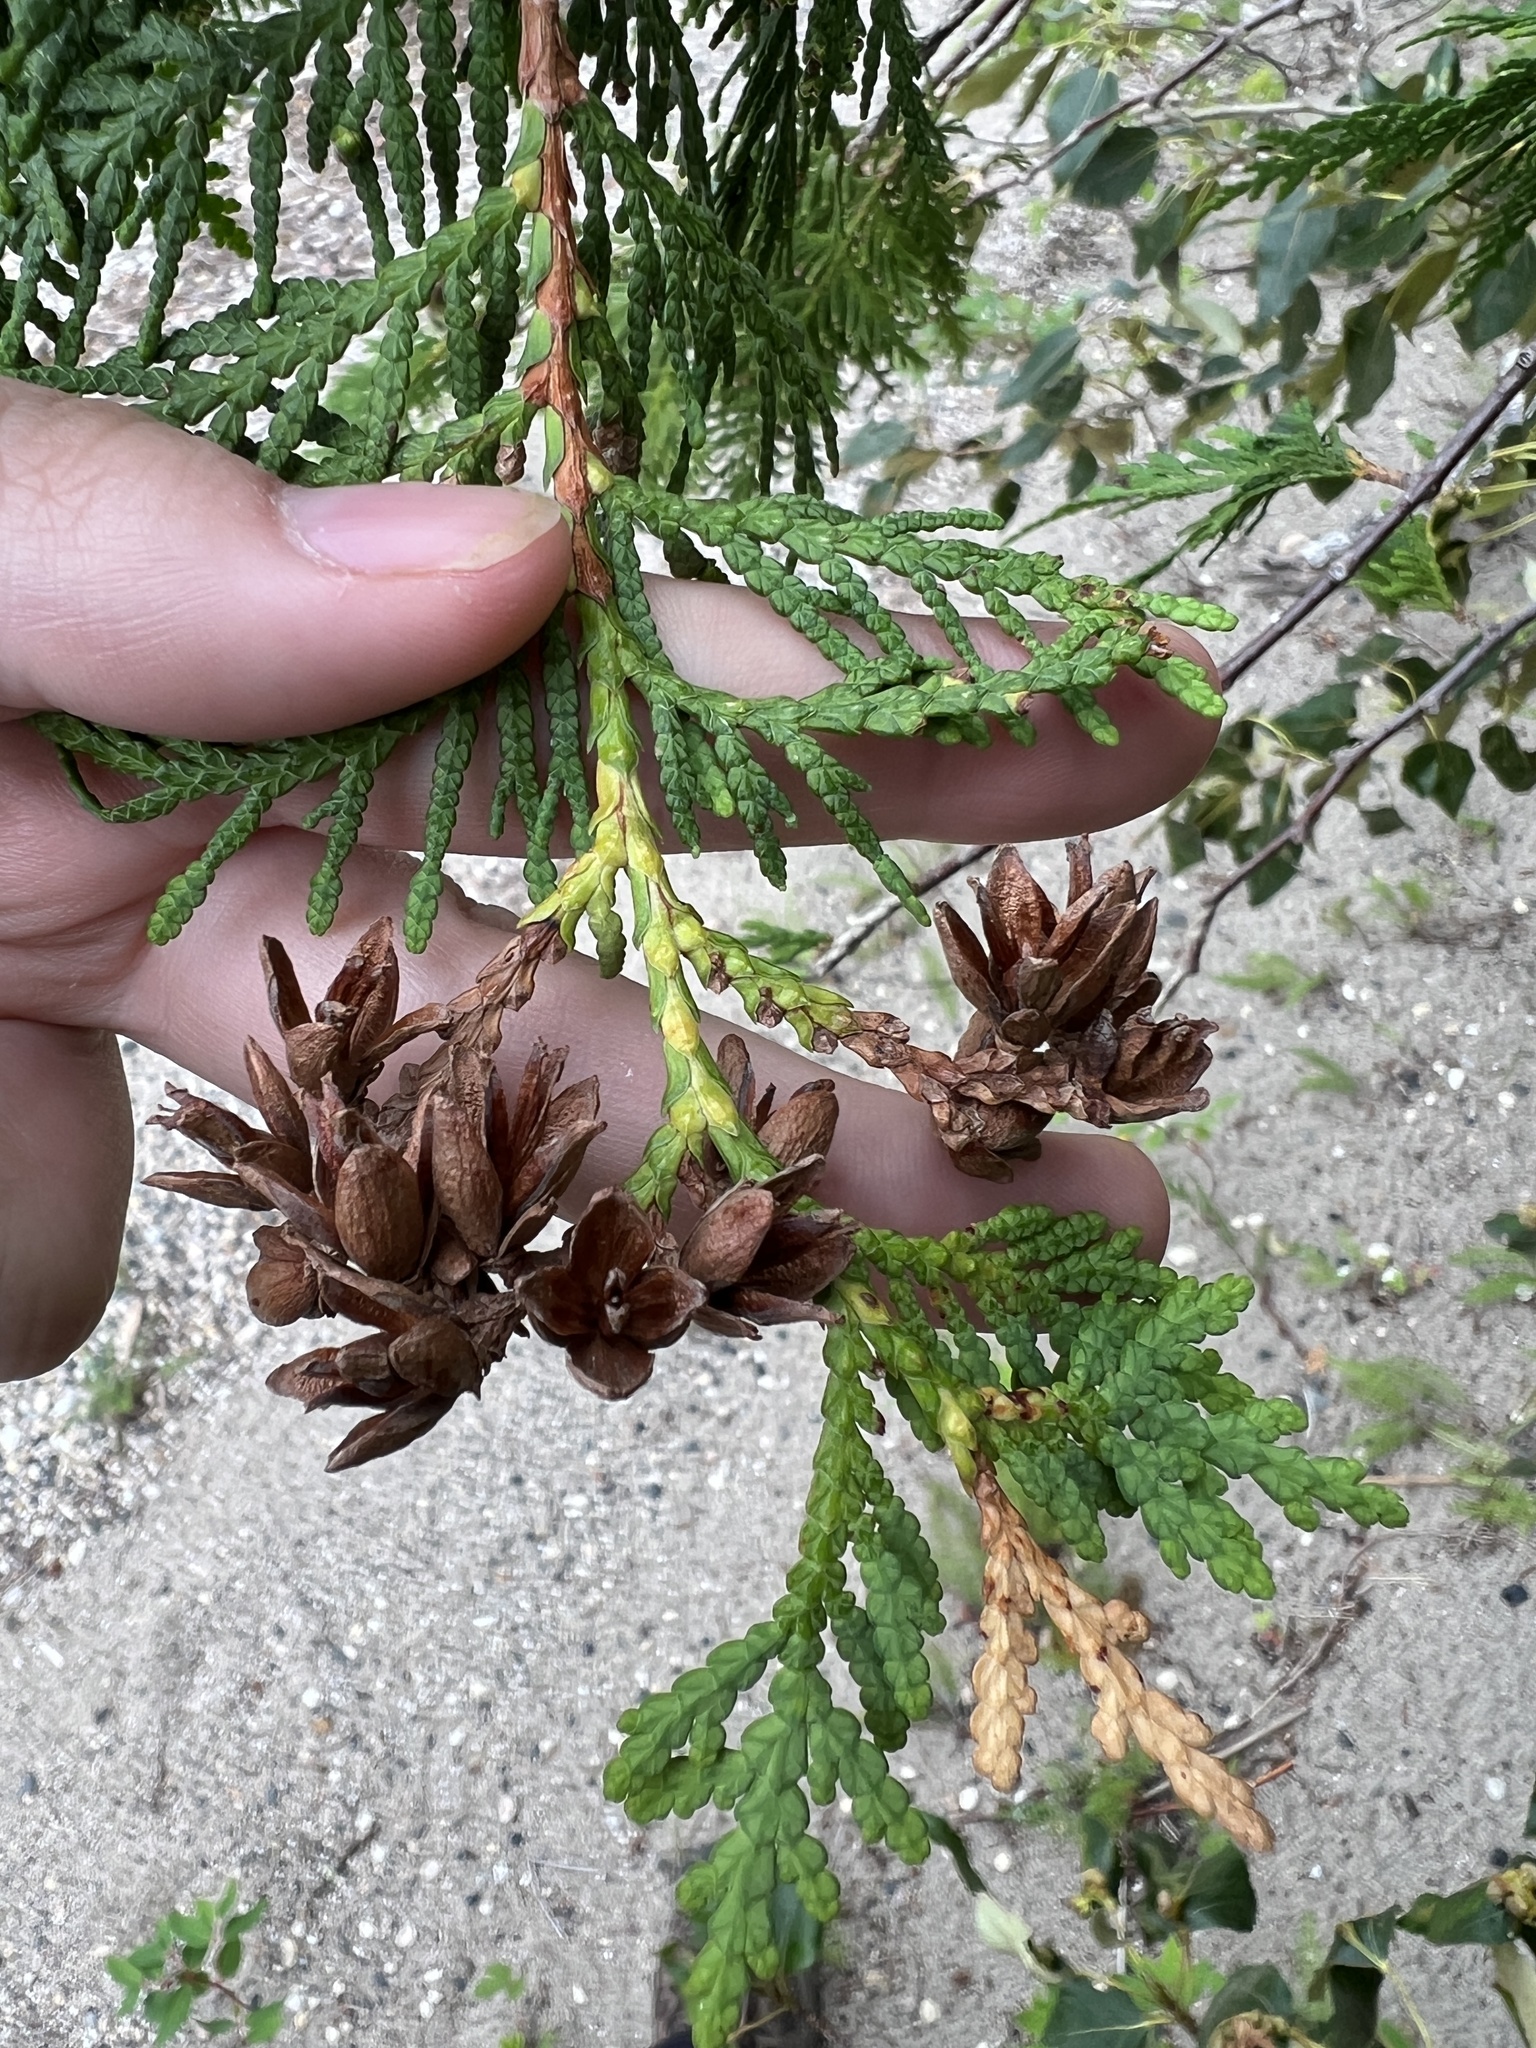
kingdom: Plantae
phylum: Tracheophyta
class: Pinopsida
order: Pinales
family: Cupressaceae
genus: Thuja
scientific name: Thuja occidentalis
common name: Northern white-cedar
